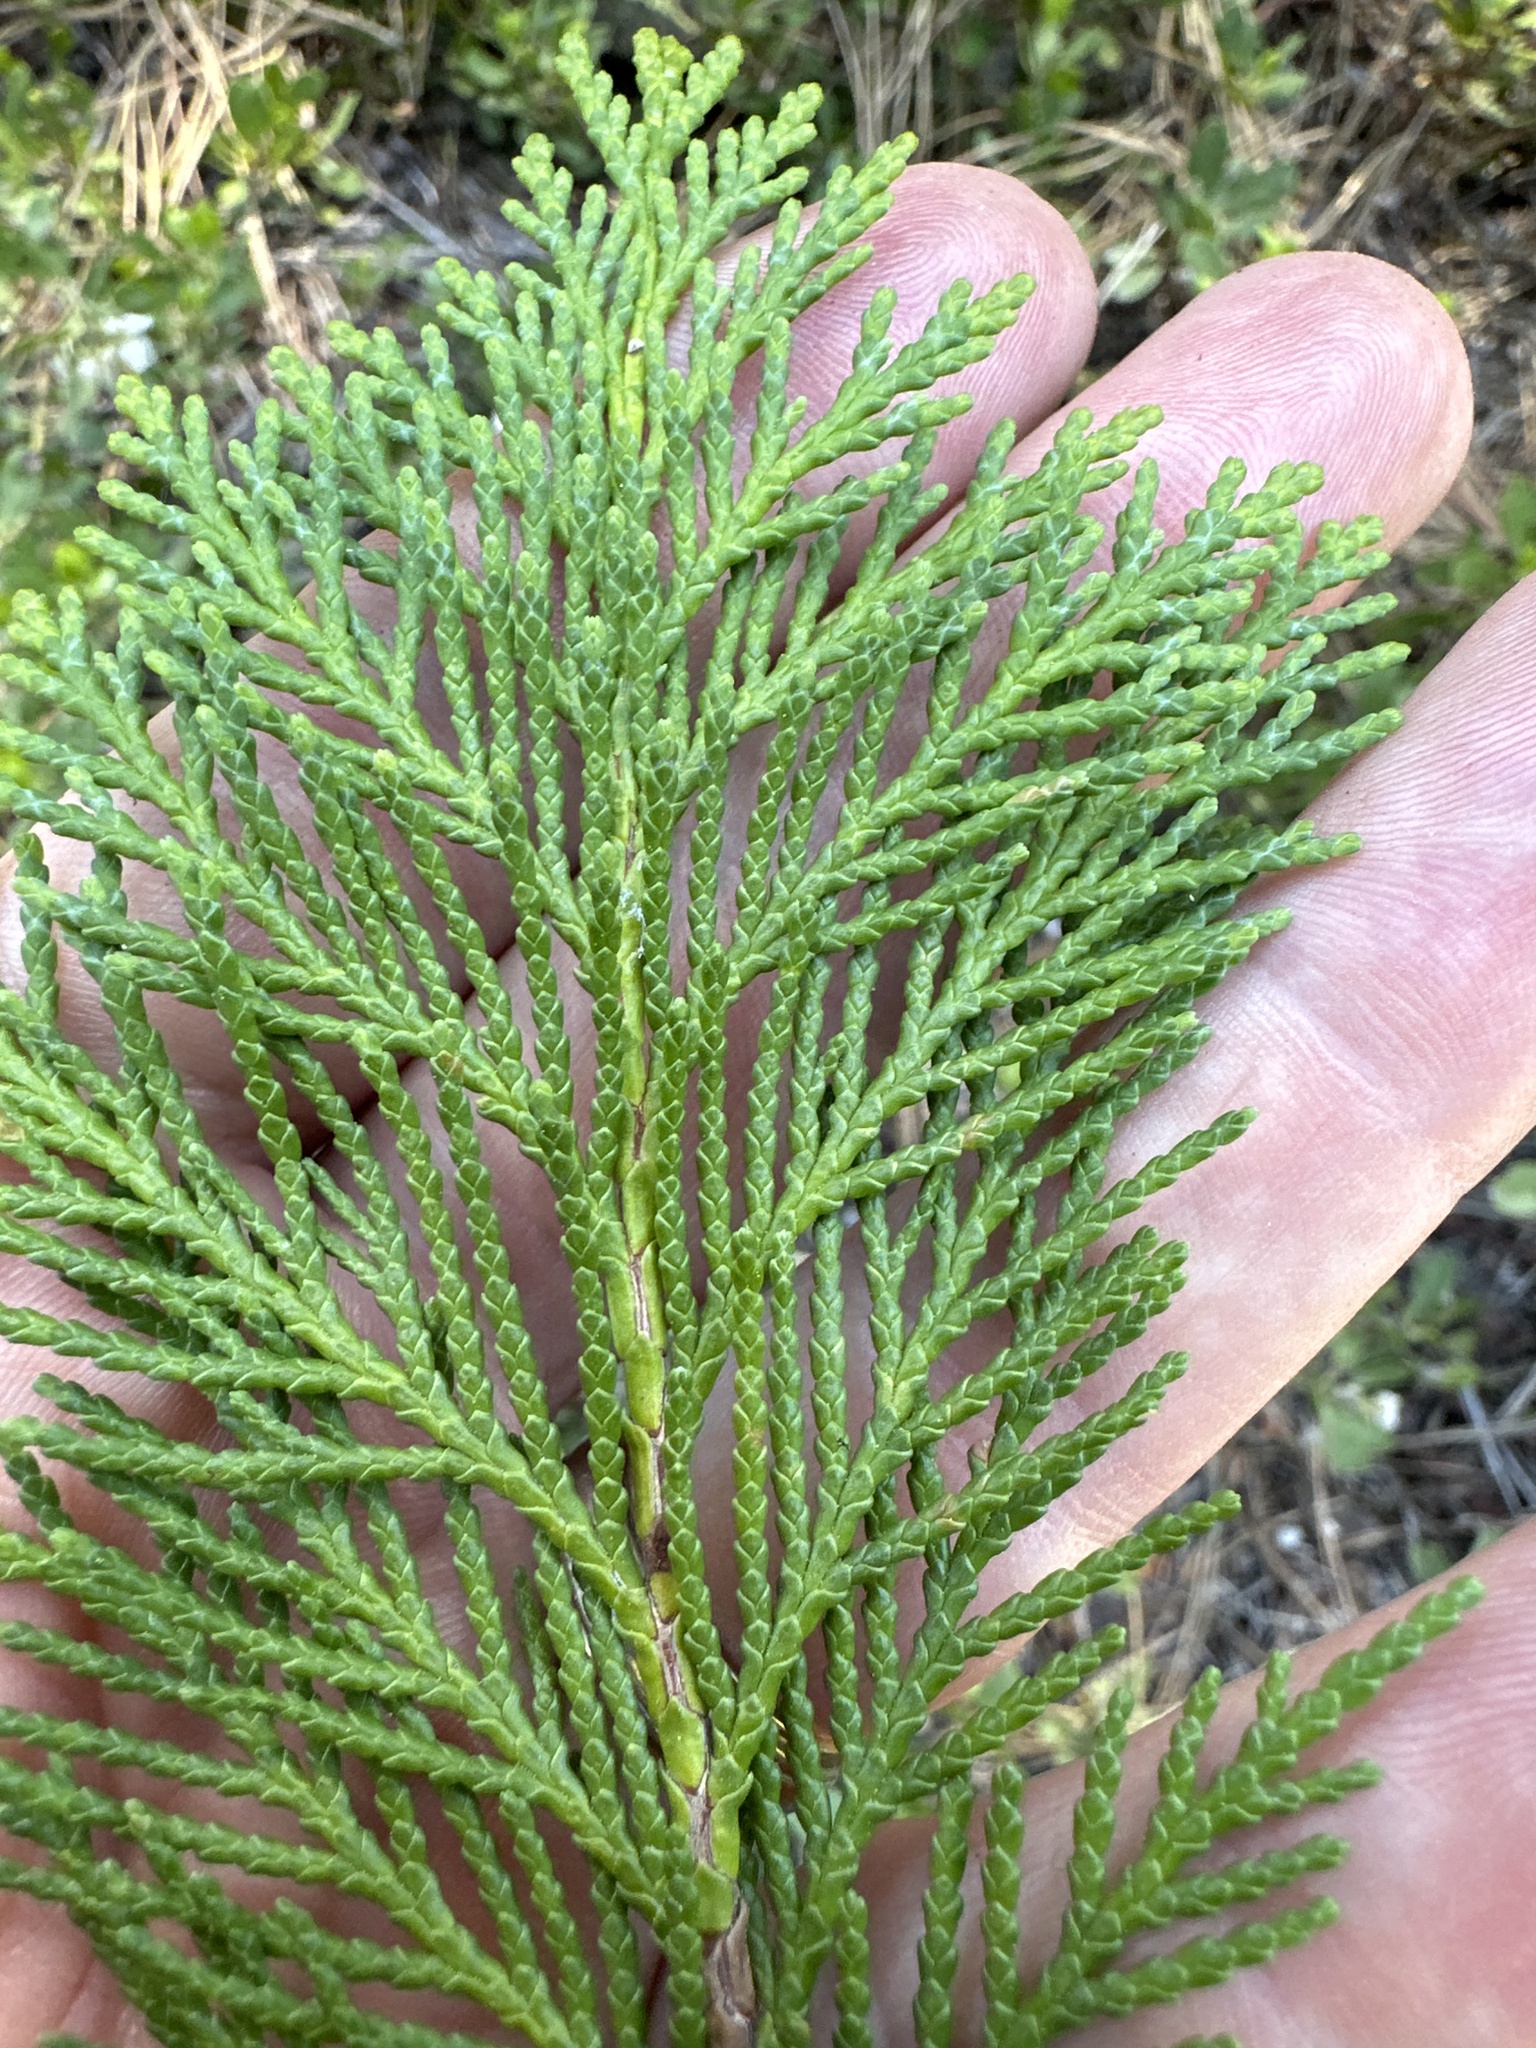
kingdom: Plantae
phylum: Tracheophyta
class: Pinopsida
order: Pinales
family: Cupressaceae
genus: Chamaecyparis
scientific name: Chamaecyparis lawsoniana
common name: Lawson's cypress
